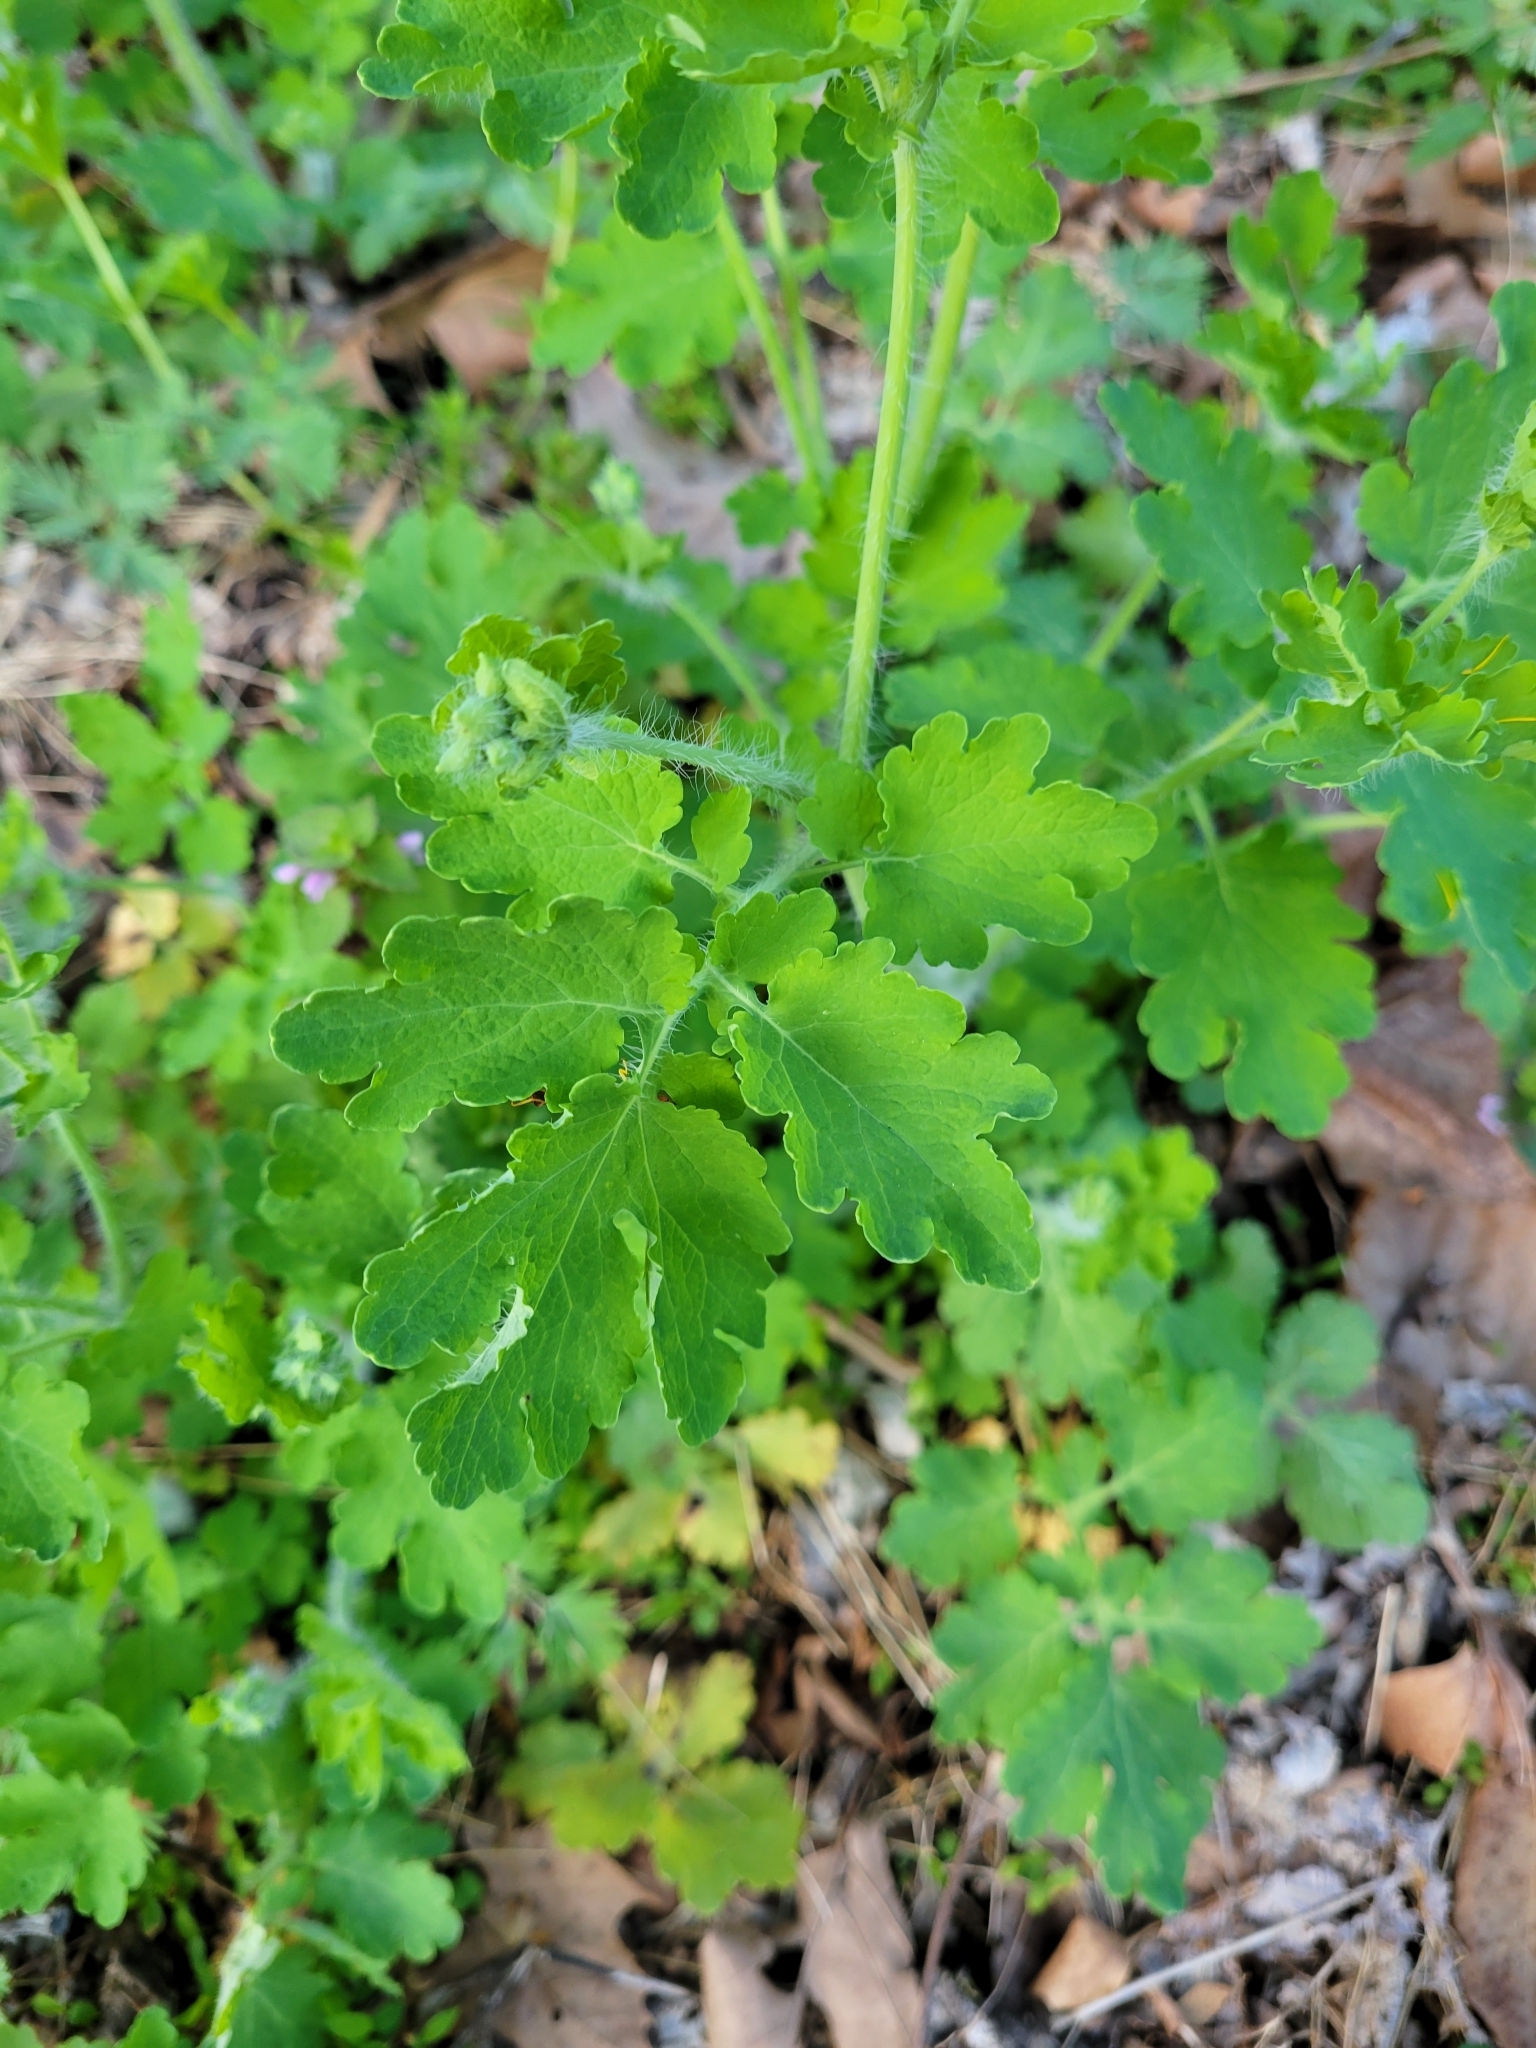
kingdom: Plantae
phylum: Tracheophyta
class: Magnoliopsida
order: Ranunculales
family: Papaveraceae
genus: Chelidonium
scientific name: Chelidonium majus
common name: Greater celandine
